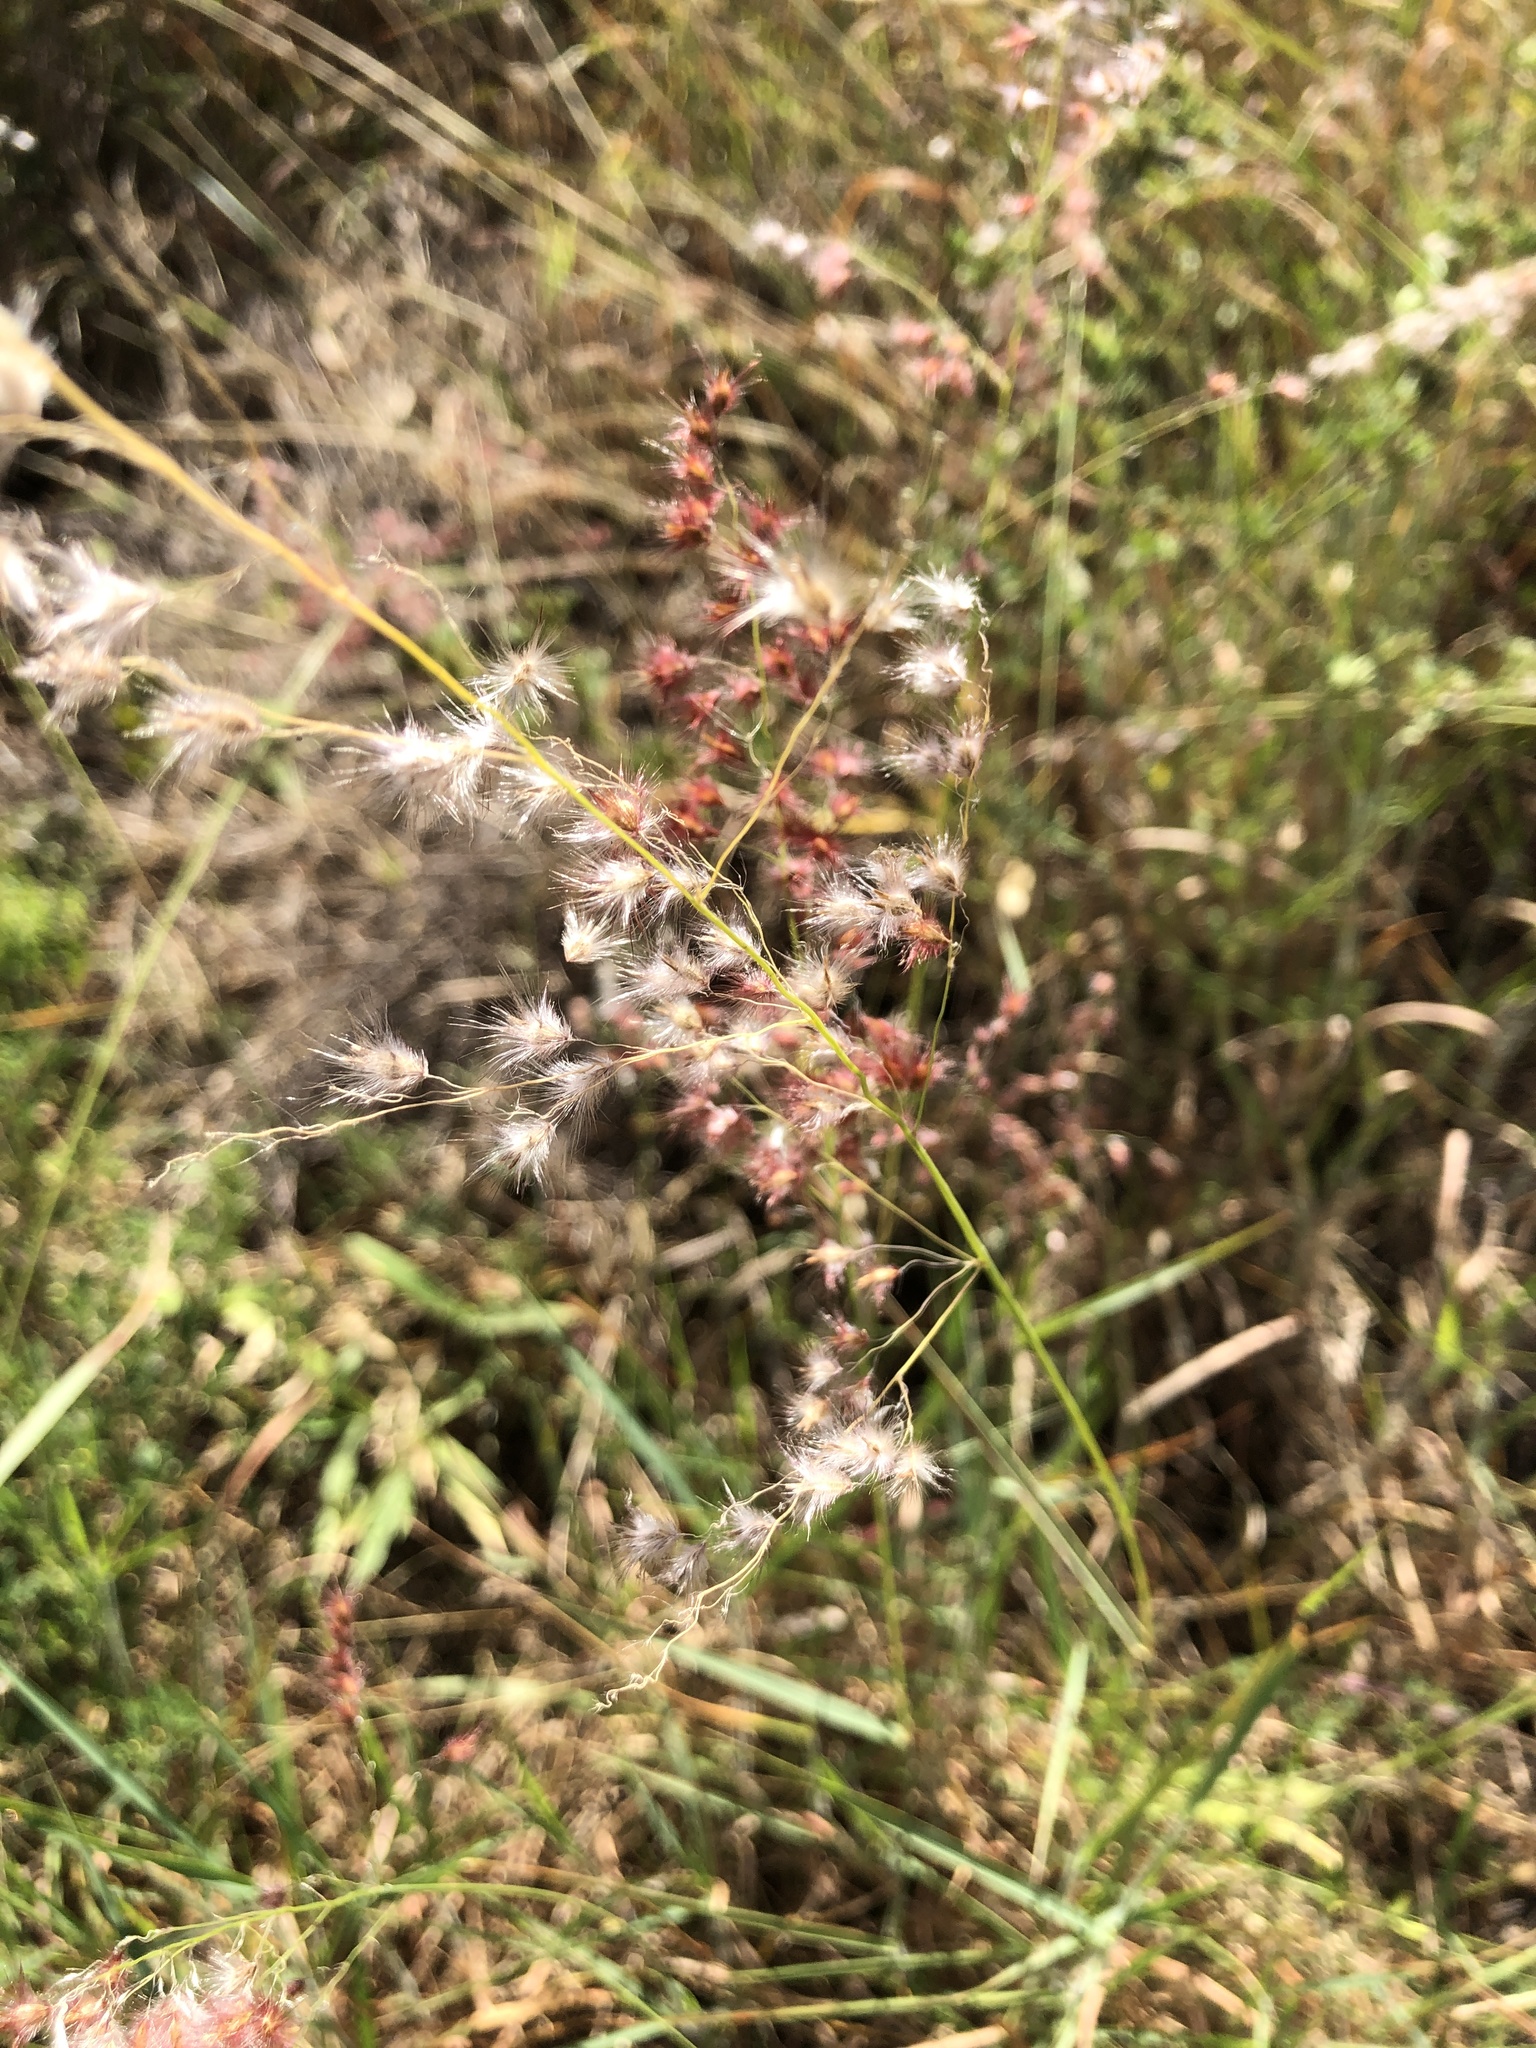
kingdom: Plantae
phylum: Tracheophyta
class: Liliopsida
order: Poales
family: Poaceae
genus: Melinis
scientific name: Melinis repens
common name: Rose natal grass
